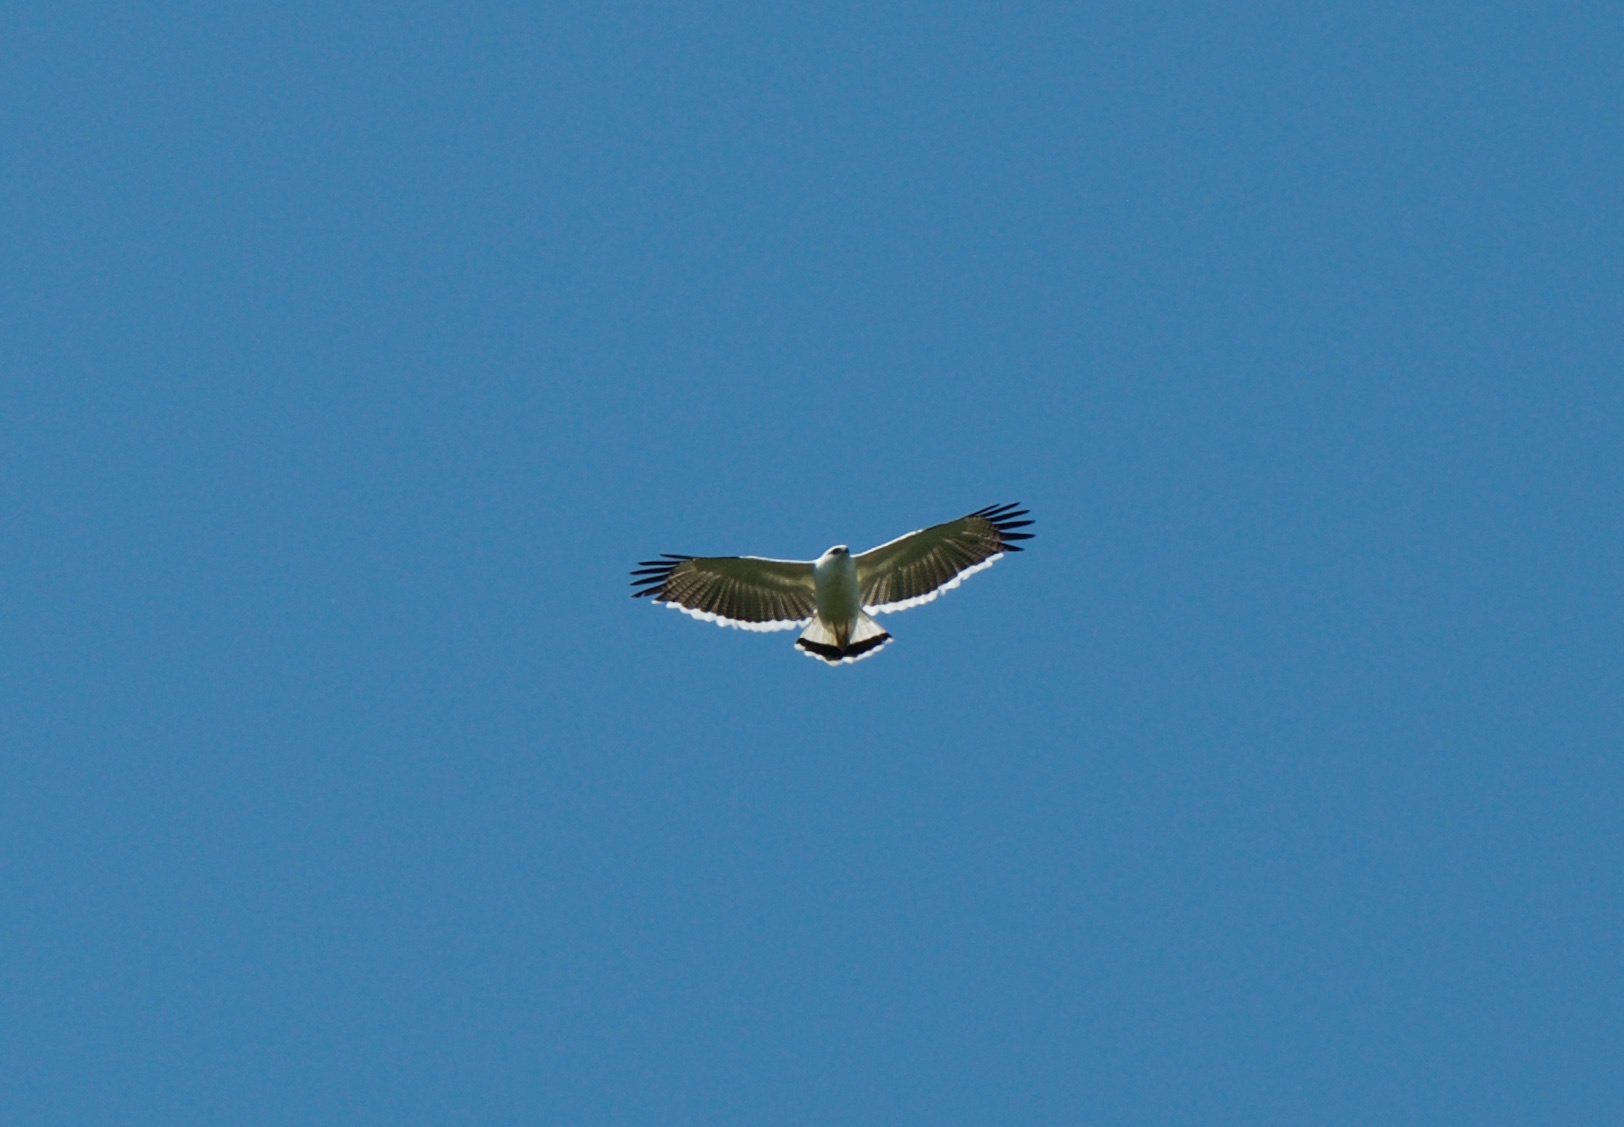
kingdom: Animalia
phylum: Chordata
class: Aves
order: Accipitriformes
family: Accipitridae
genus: Leucopternis
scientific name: Leucopternis albicollis
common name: White hawk
